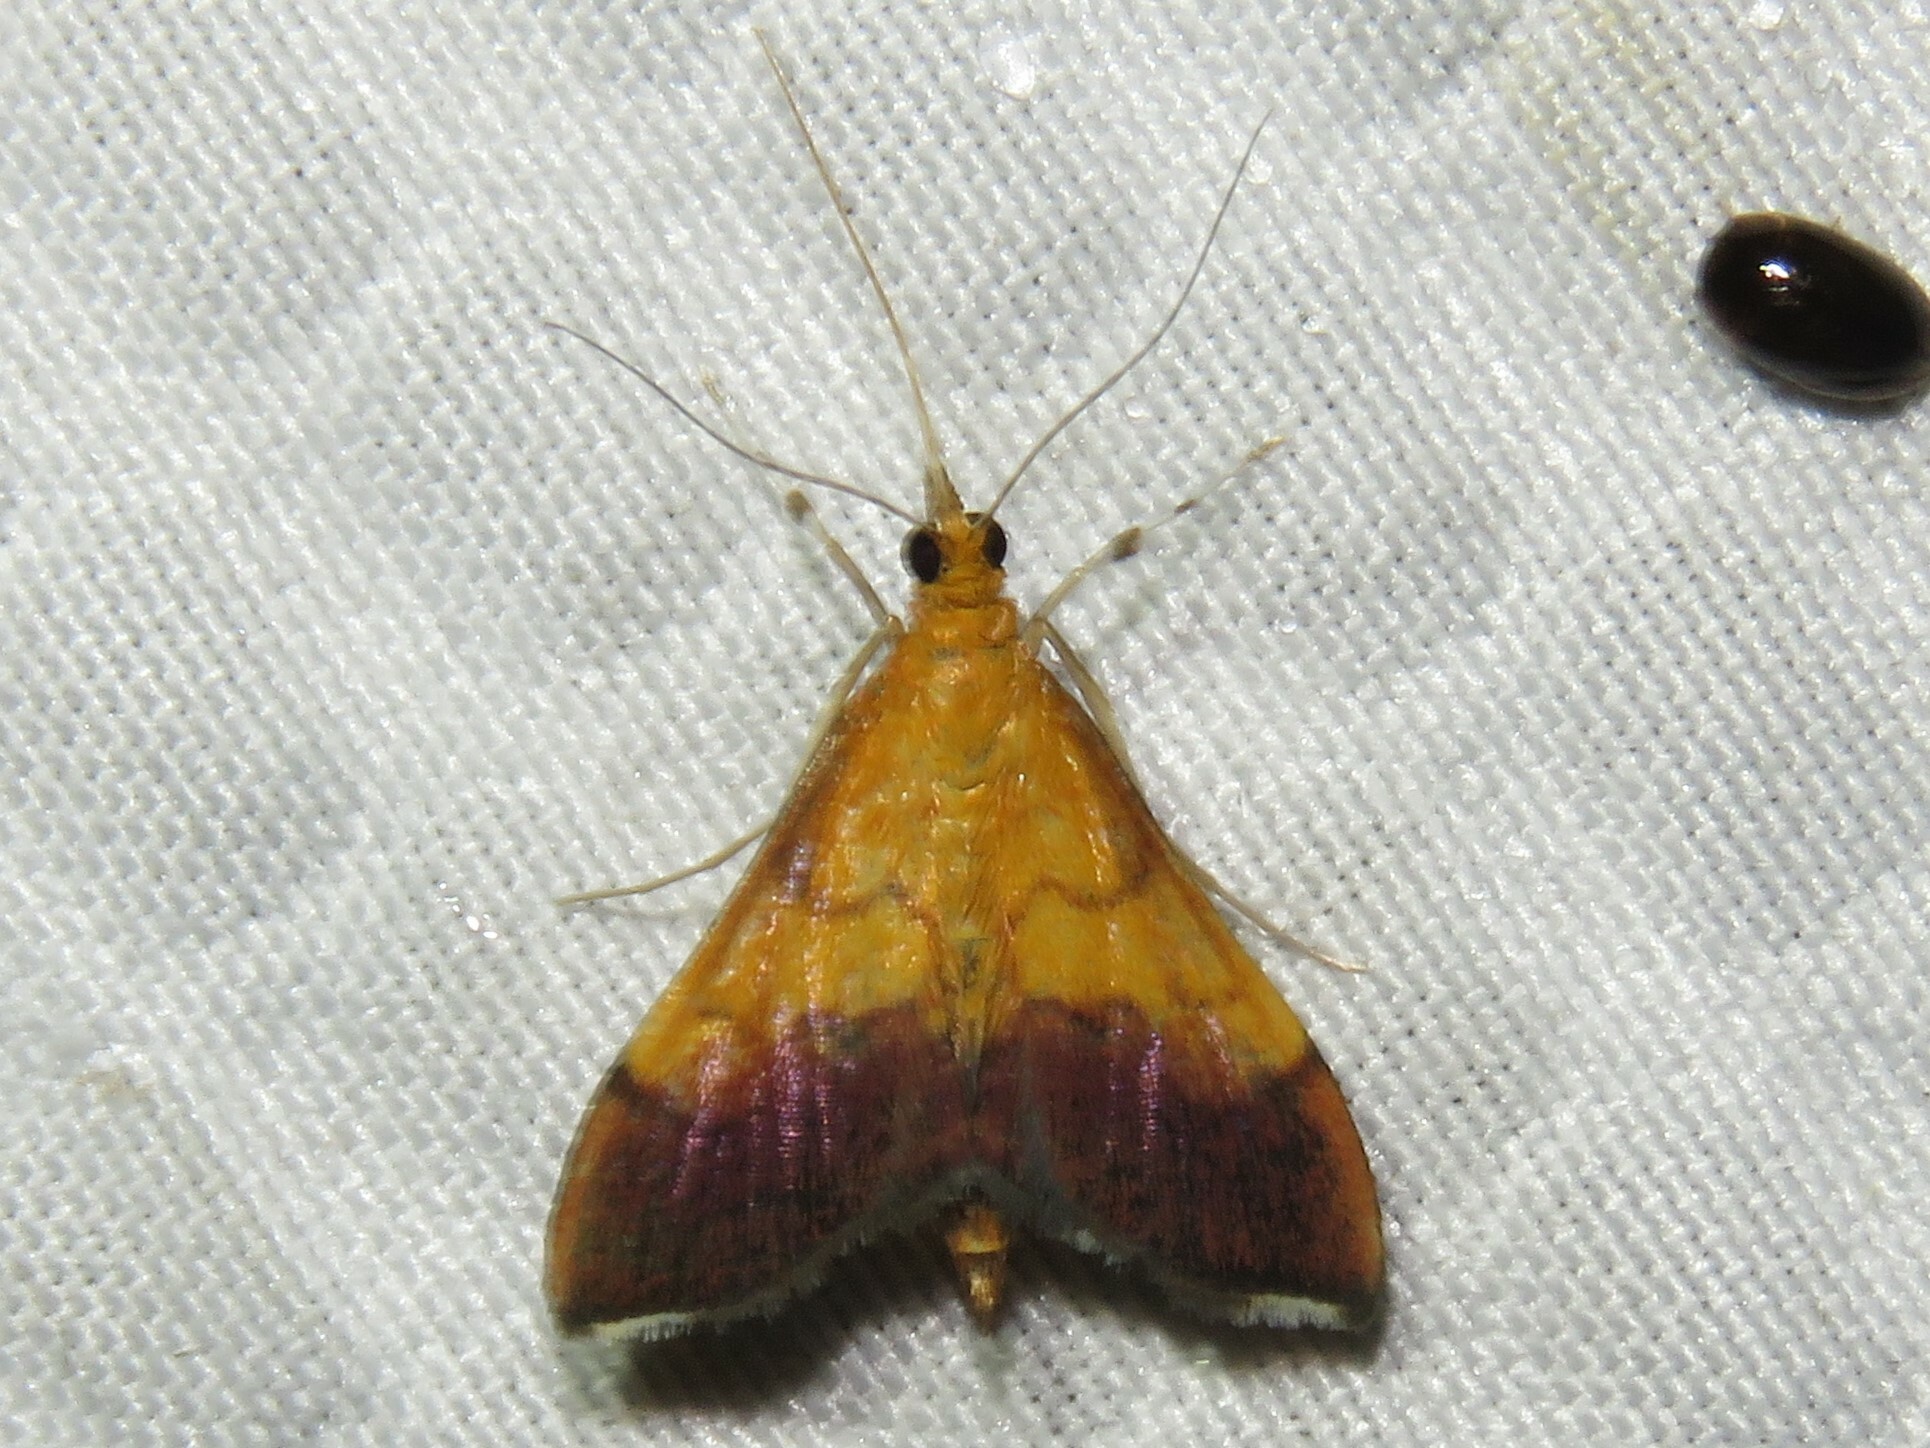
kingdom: Animalia
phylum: Arthropoda
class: Insecta
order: Lepidoptera
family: Crambidae
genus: Pyrausta
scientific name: Pyrausta bicoloralis
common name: Bicolored pyrausta moth
